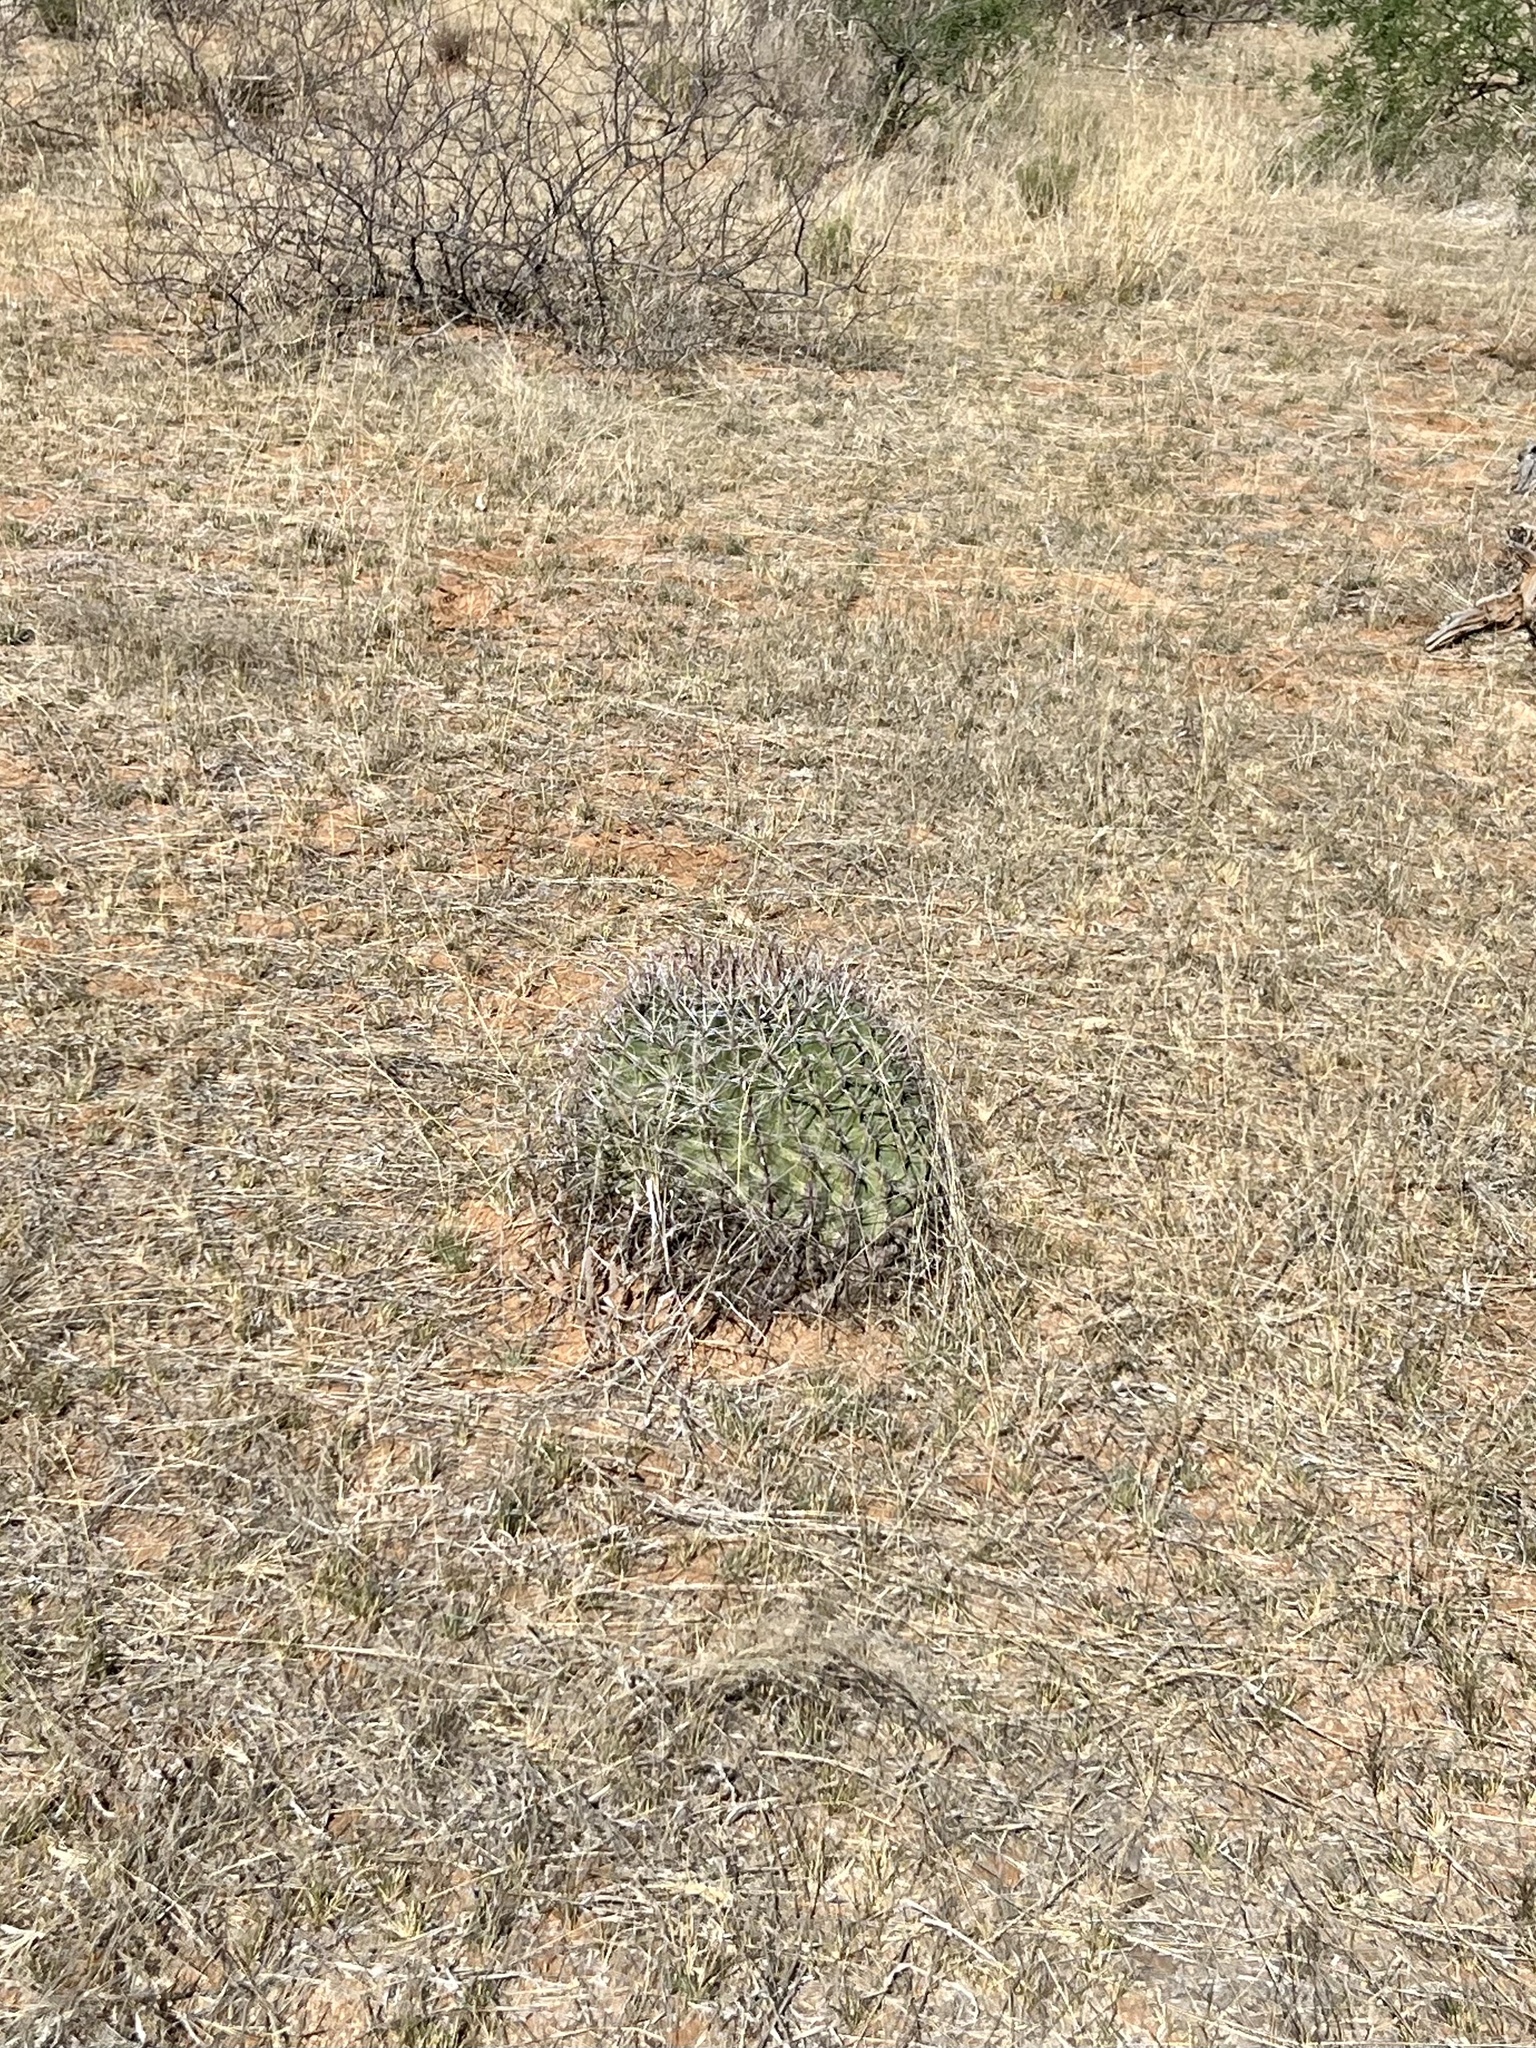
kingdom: Plantae
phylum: Tracheophyta
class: Magnoliopsida
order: Caryophyllales
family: Cactaceae
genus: Ferocactus
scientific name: Ferocactus wislizeni
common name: Candy barrel cactus
